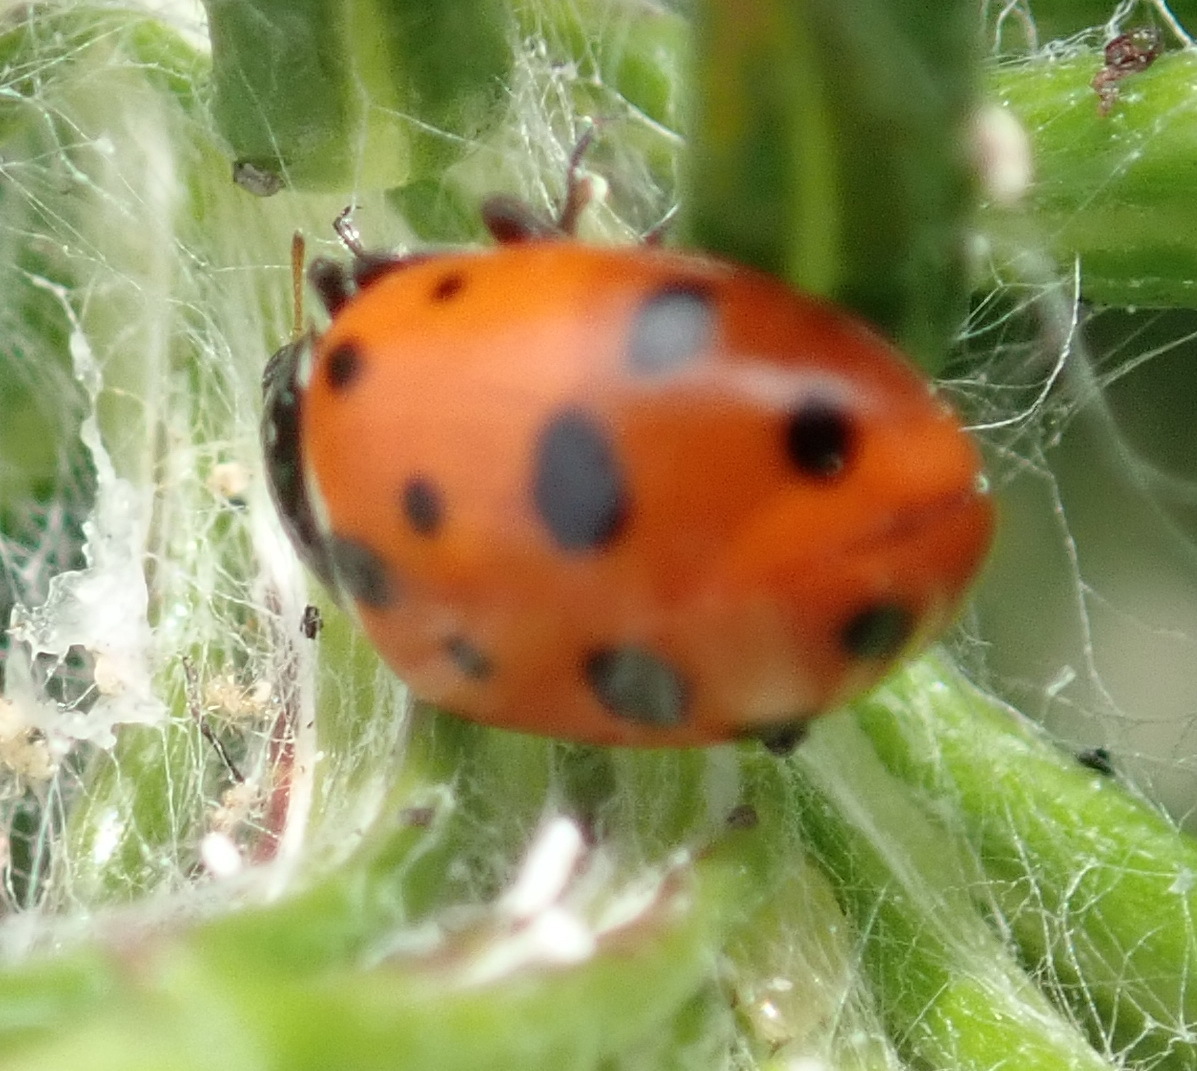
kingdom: Animalia
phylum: Arthropoda
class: Insecta
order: Coleoptera
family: Coccinellidae
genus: Hippodamia
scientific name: Hippodamia variegata
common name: Ladybird beetle
